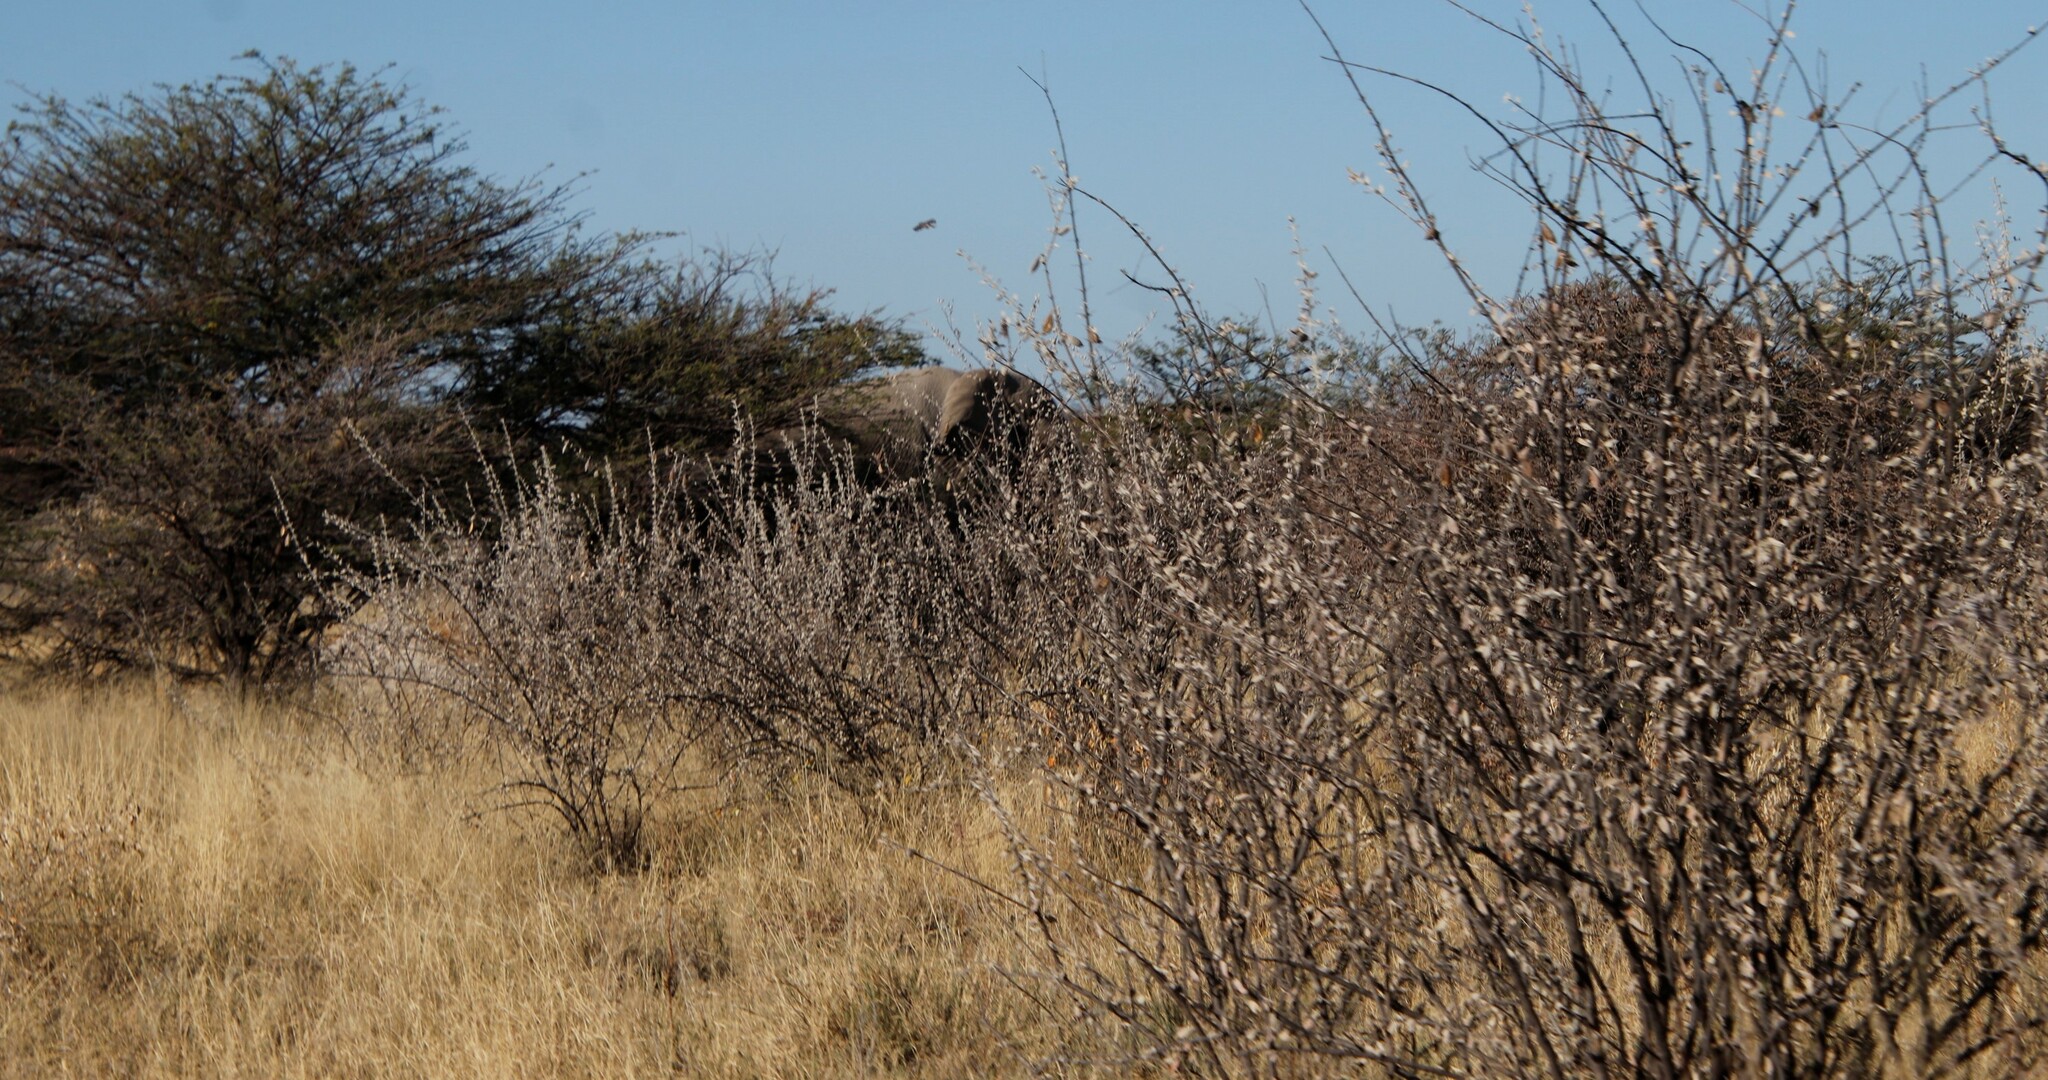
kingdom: Plantae
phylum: Tracheophyta
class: Magnoliopsida
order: Lamiales
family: Bignoniaceae
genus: Catophractes
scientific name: Catophractes alexandri
